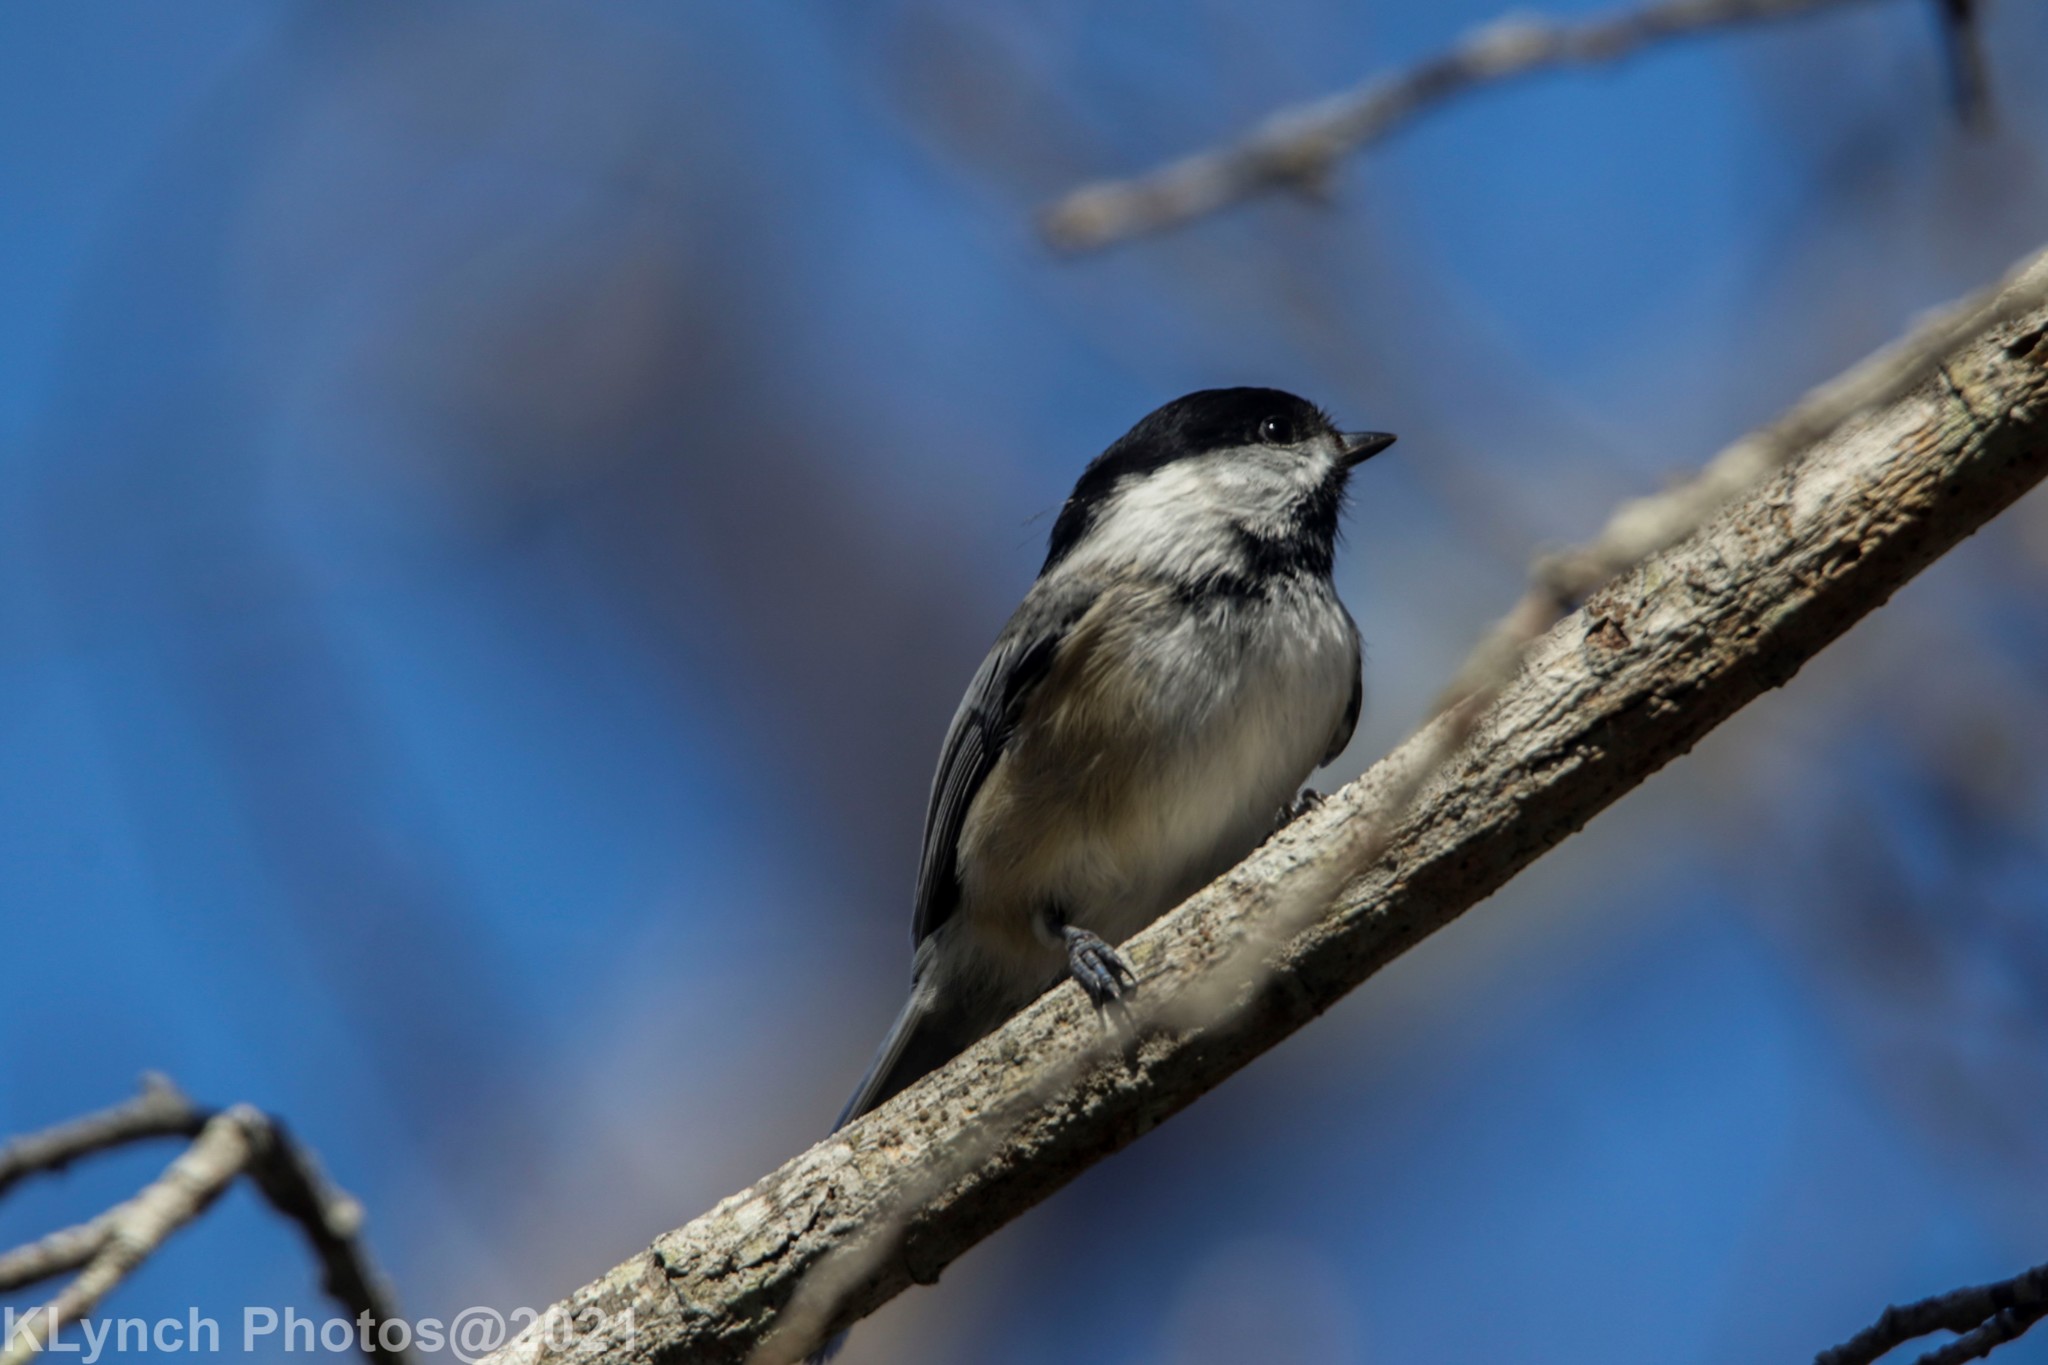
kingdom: Animalia
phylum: Chordata
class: Aves
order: Passeriformes
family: Paridae
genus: Poecile
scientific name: Poecile atricapillus
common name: Black-capped chickadee
